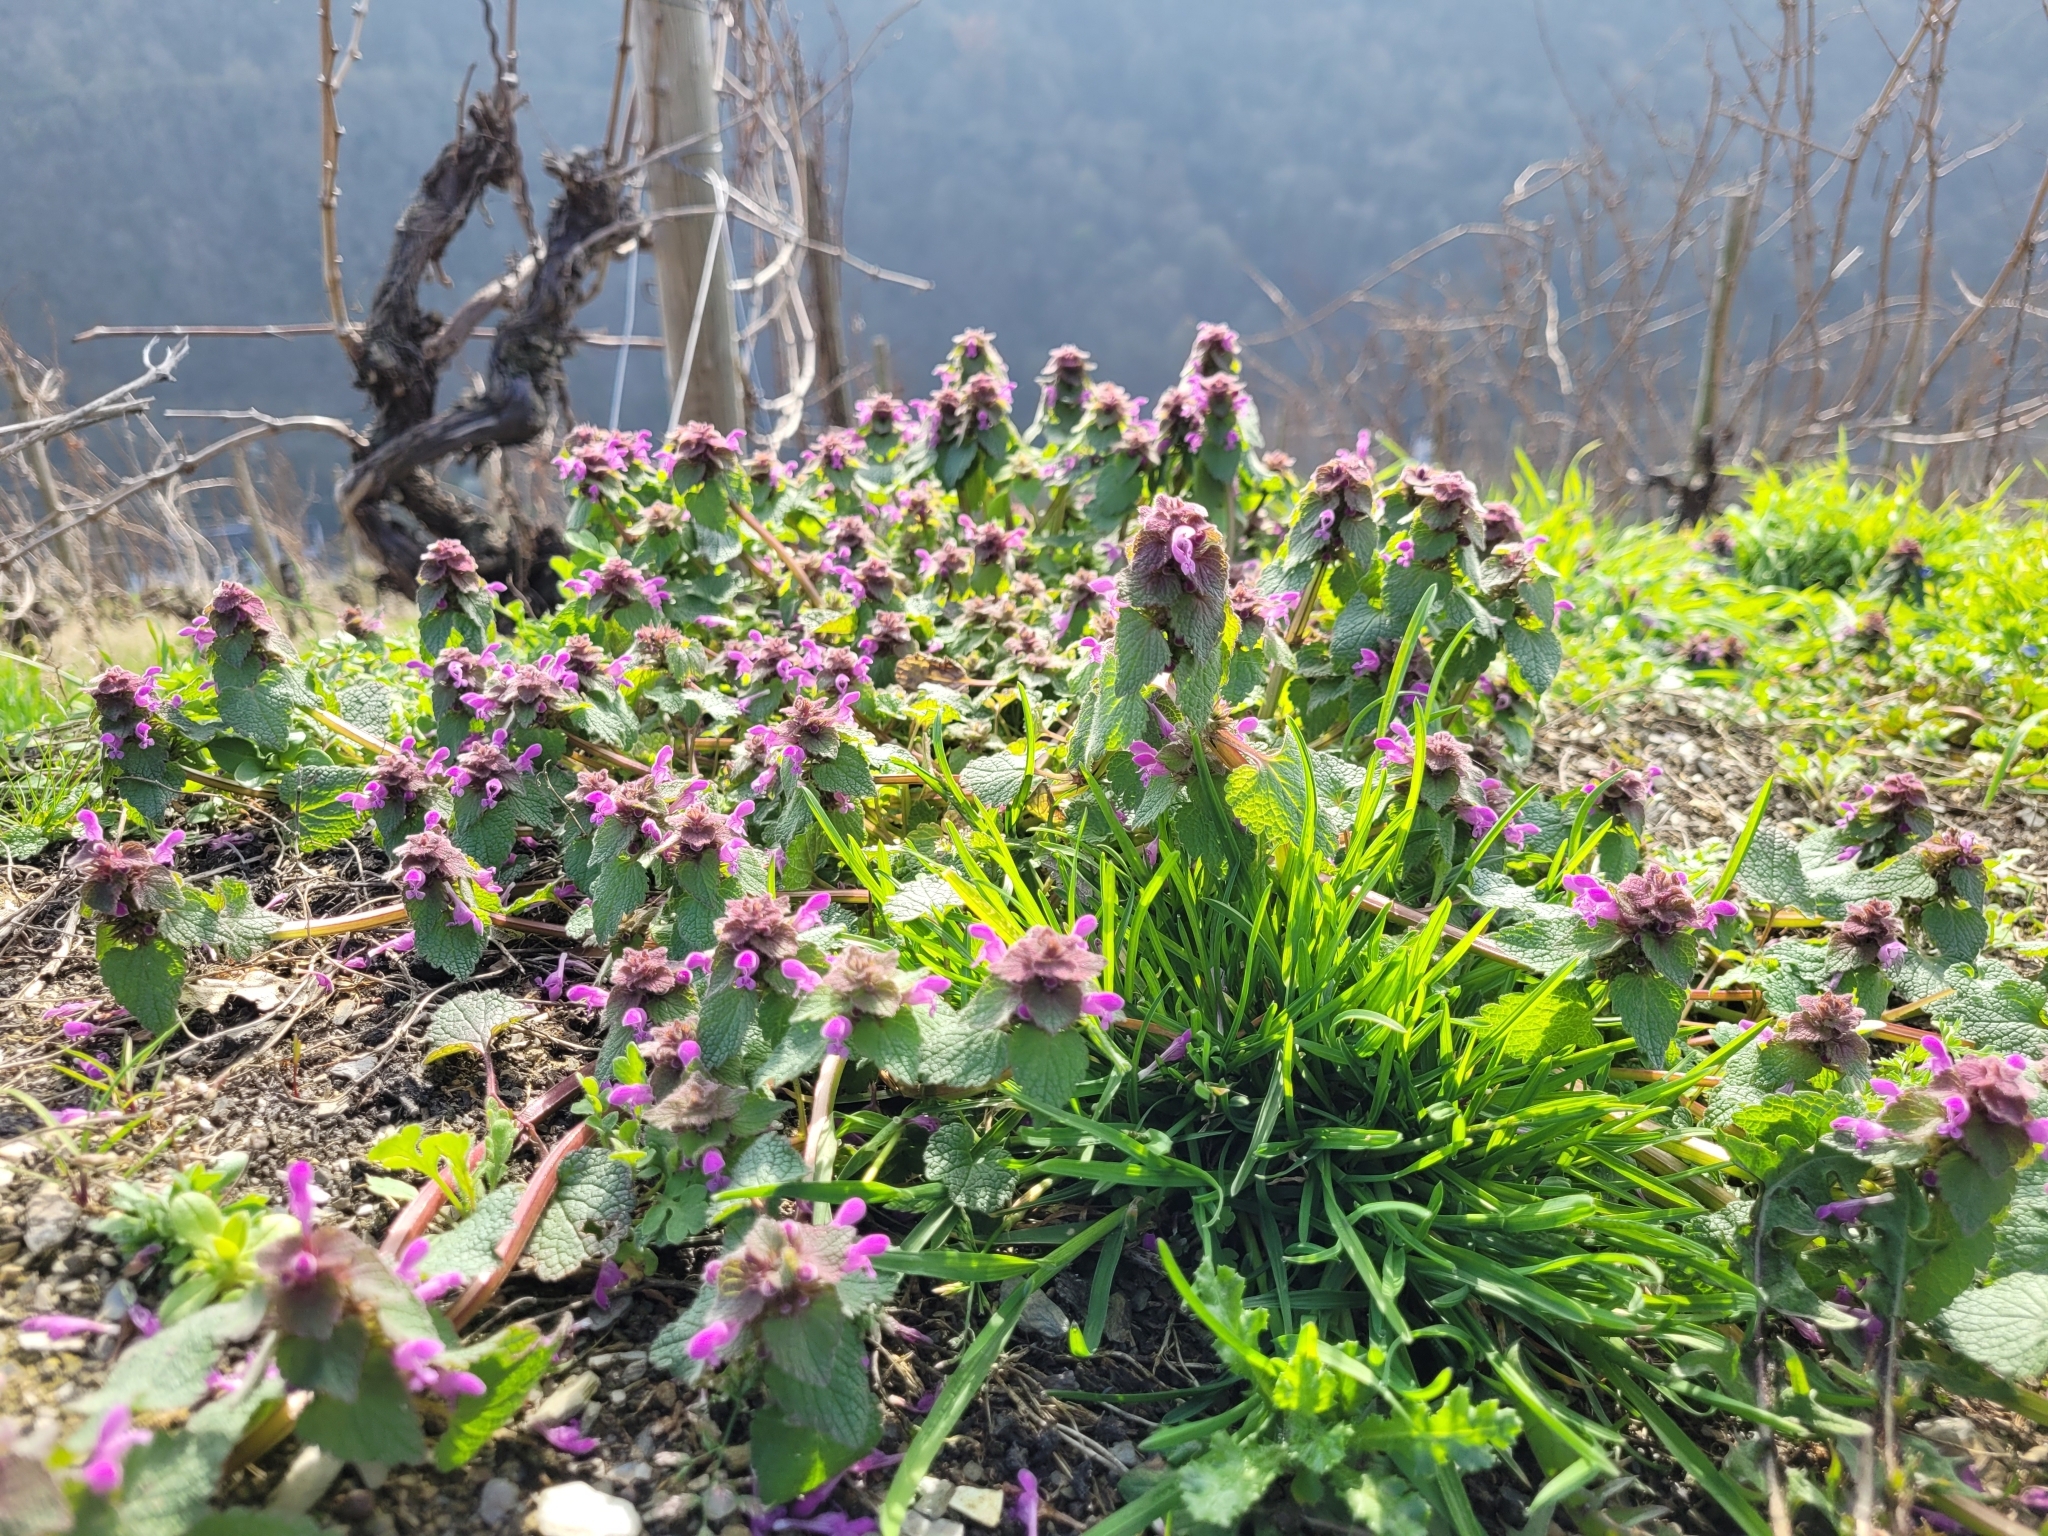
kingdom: Plantae
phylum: Tracheophyta
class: Magnoliopsida
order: Lamiales
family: Lamiaceae
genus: Lamium
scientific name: Lamium purpureum
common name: Red dead-nettle
